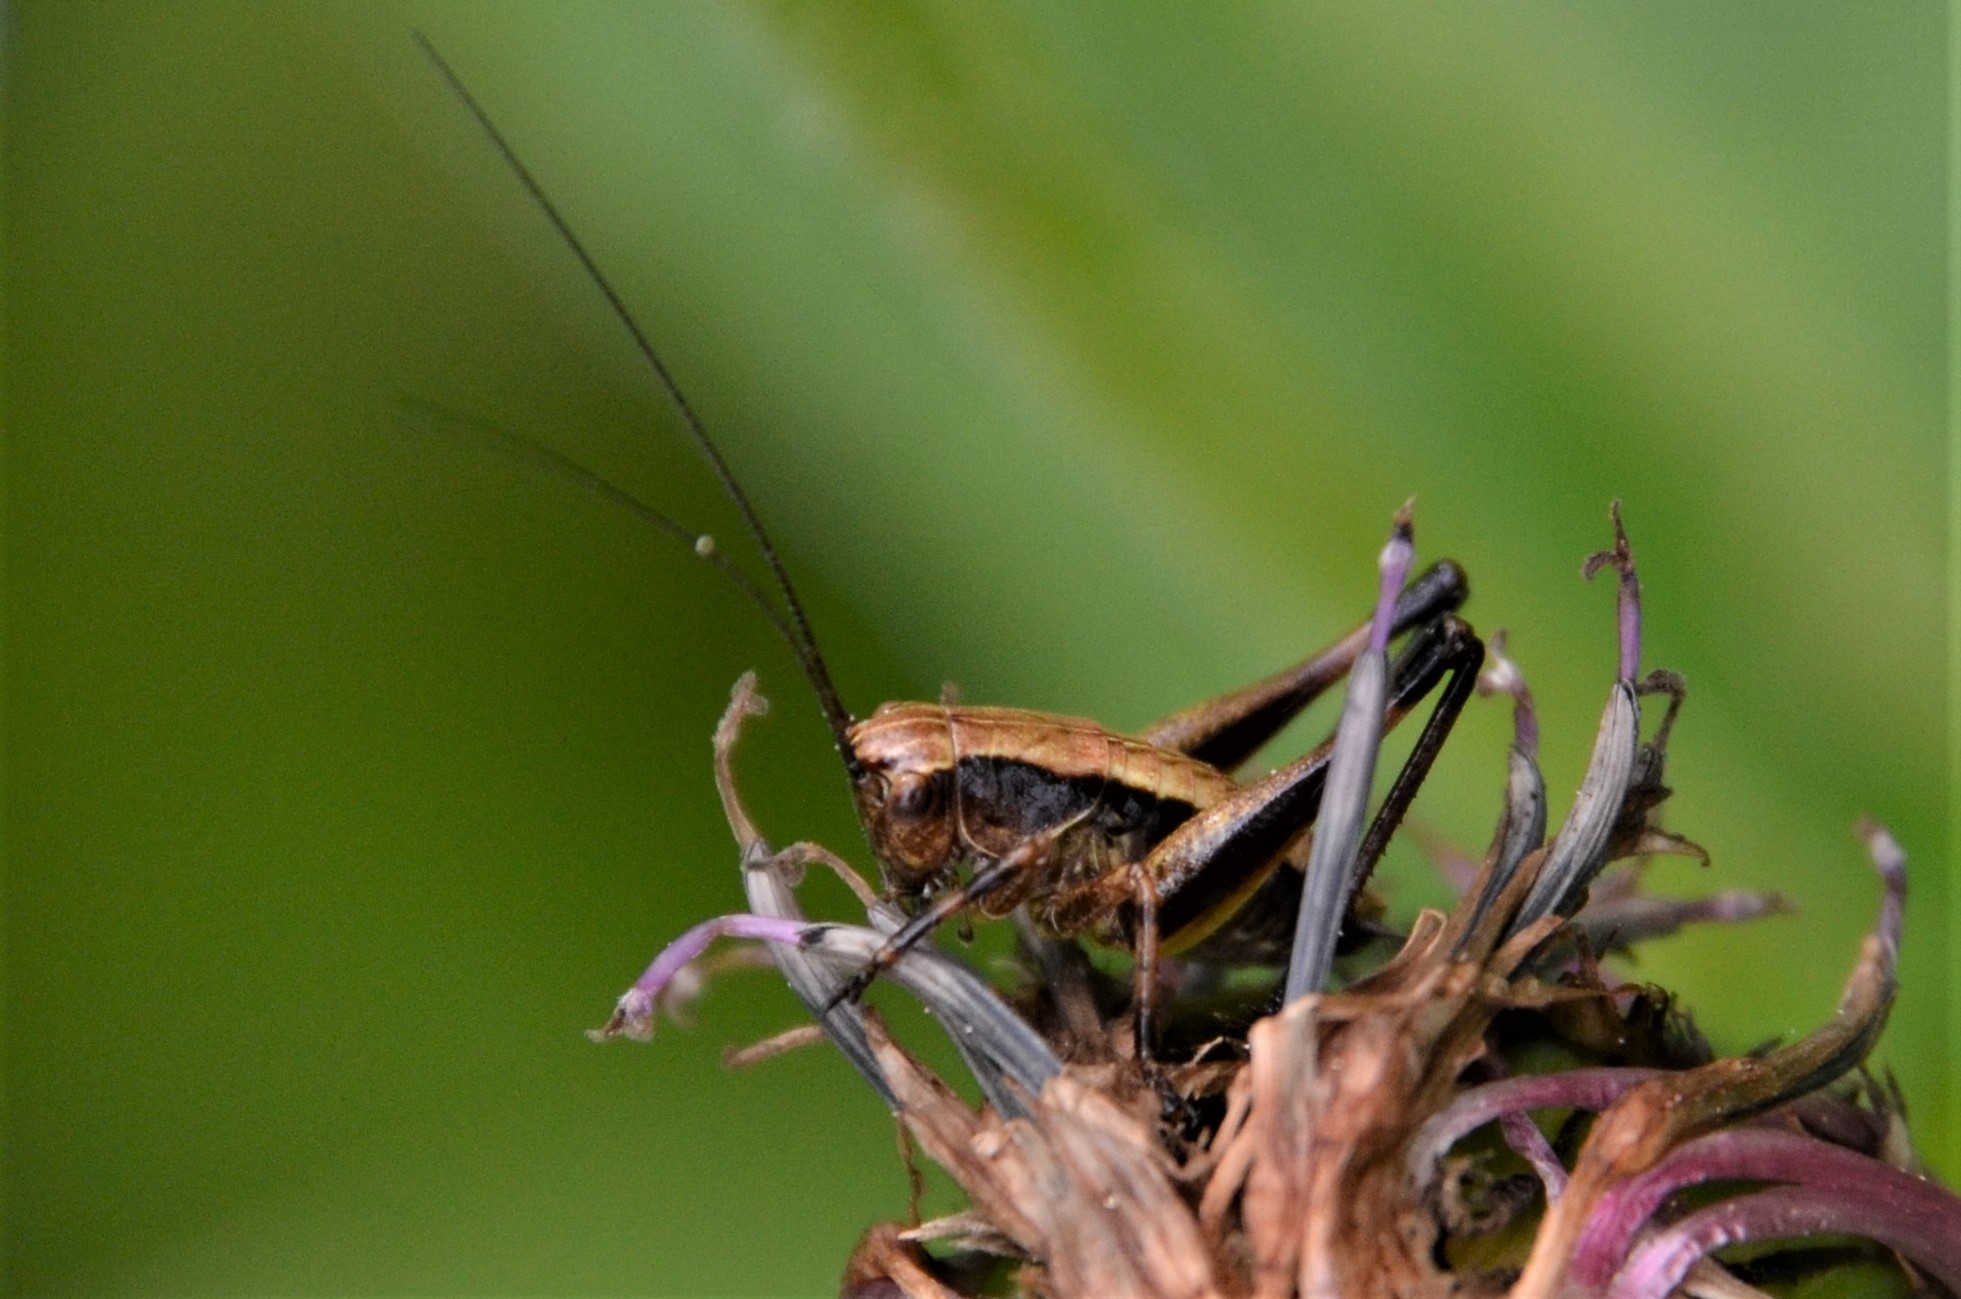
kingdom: Animalia
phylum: Arthropoda
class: Insecta
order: Orthoptera
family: Tettigoniidae
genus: Pholidoptera
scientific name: Pholidoptera griseoaptera
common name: Dark bush-cricket
